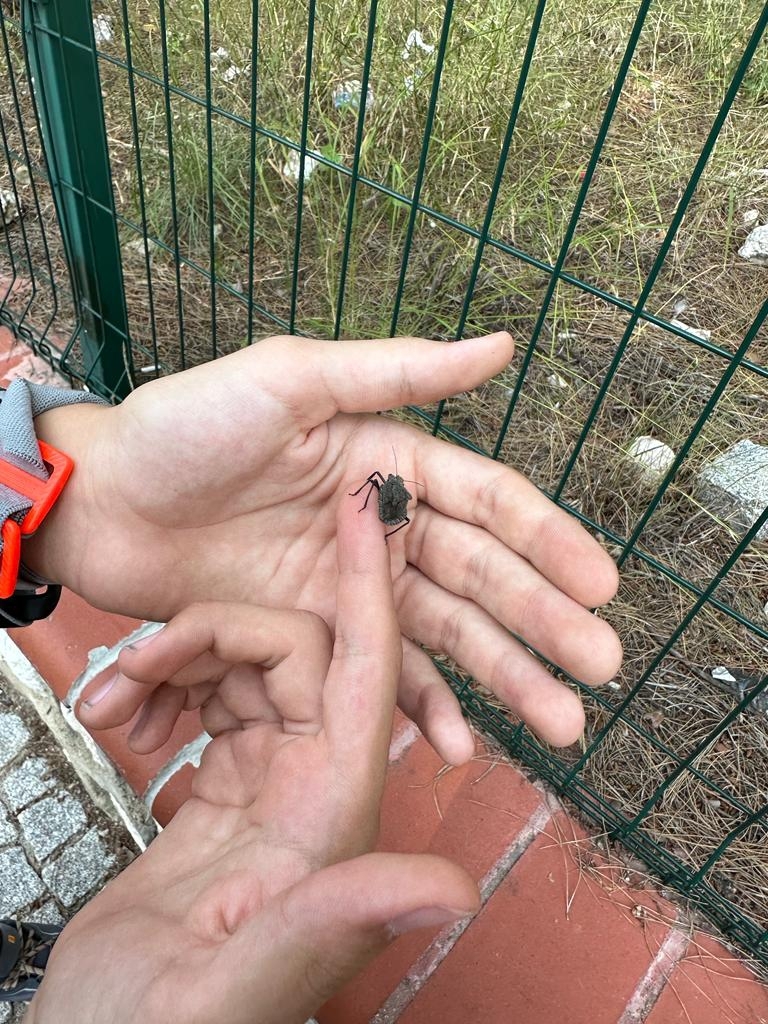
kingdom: Animalia
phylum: Arthropoda
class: Insecta
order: Hemiptera
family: Pentatomidae
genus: Mustha
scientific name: Mustha spinosula
